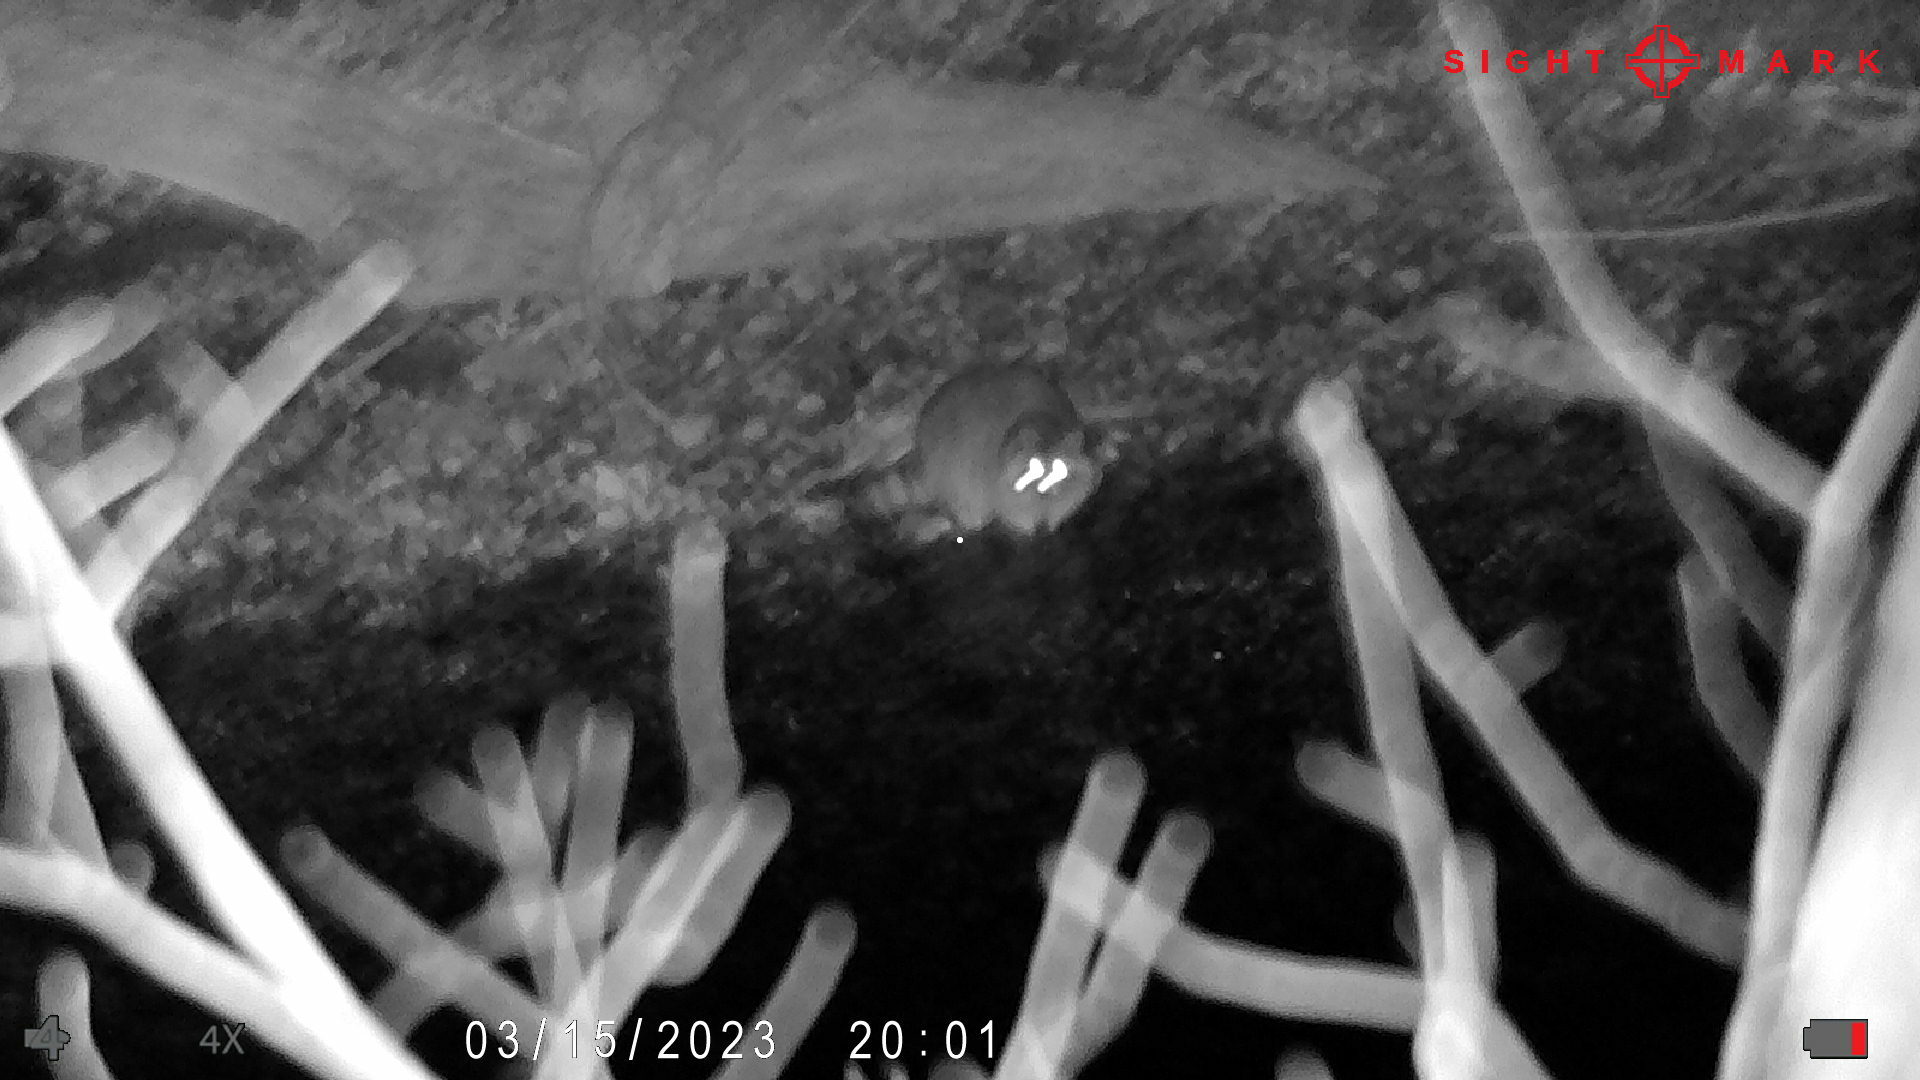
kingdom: Animalia
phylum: Chordata
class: Mammalia
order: Carnivora
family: Procyonidae
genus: Procyon
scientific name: Procyon lotor
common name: Raccoon
